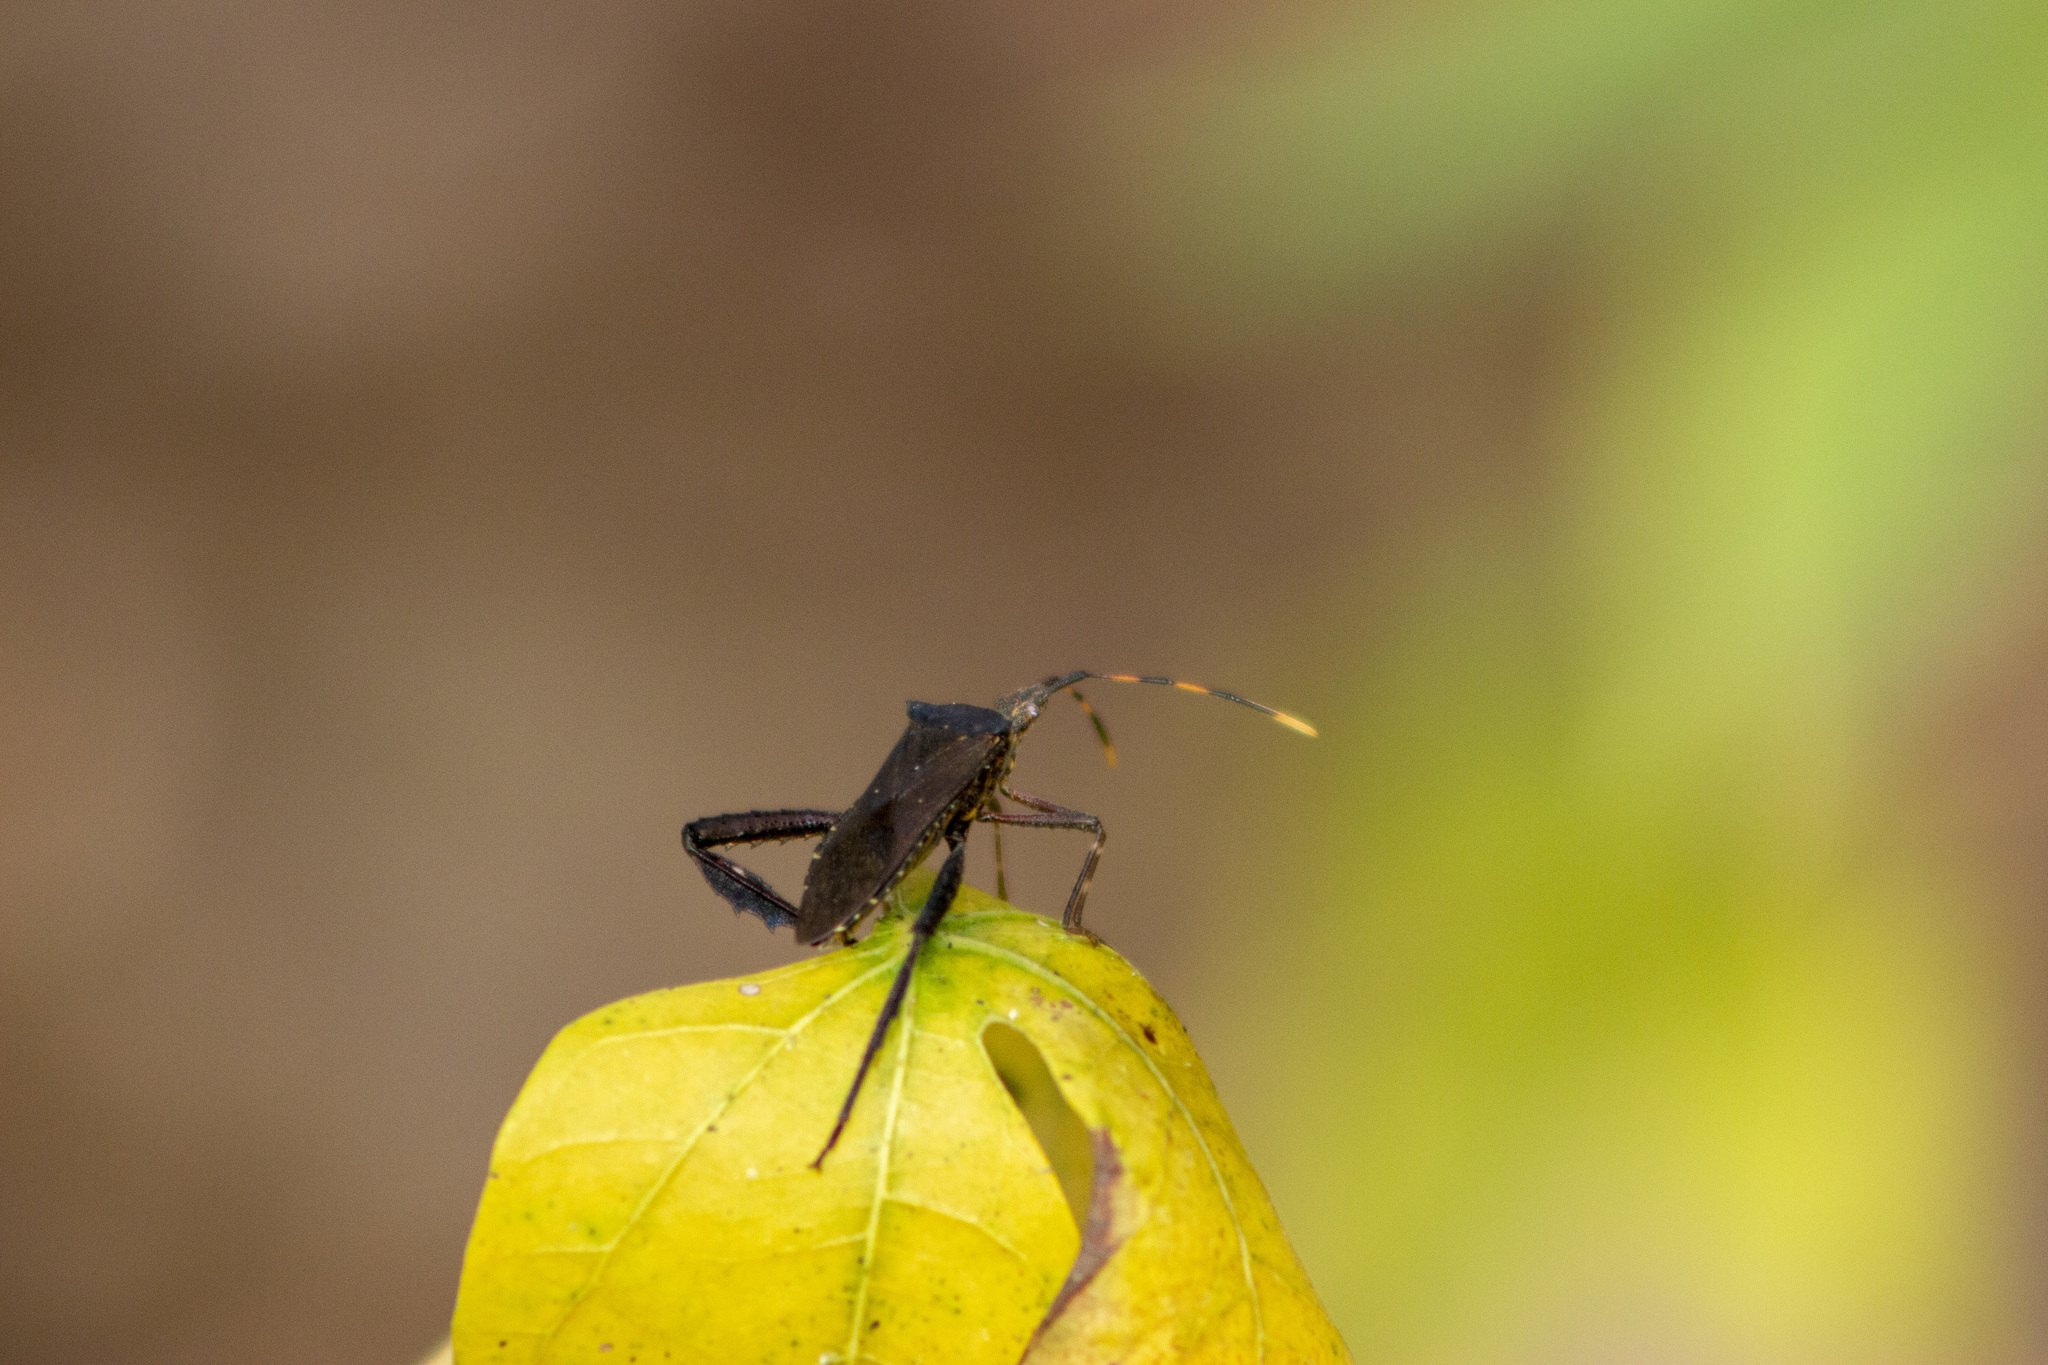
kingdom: Animalia
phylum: Arthropoda
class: Insecta
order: Hemiptera
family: Coreidae
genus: Leptoglossus
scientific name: Leptoglossus gonagra
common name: Citron bug
